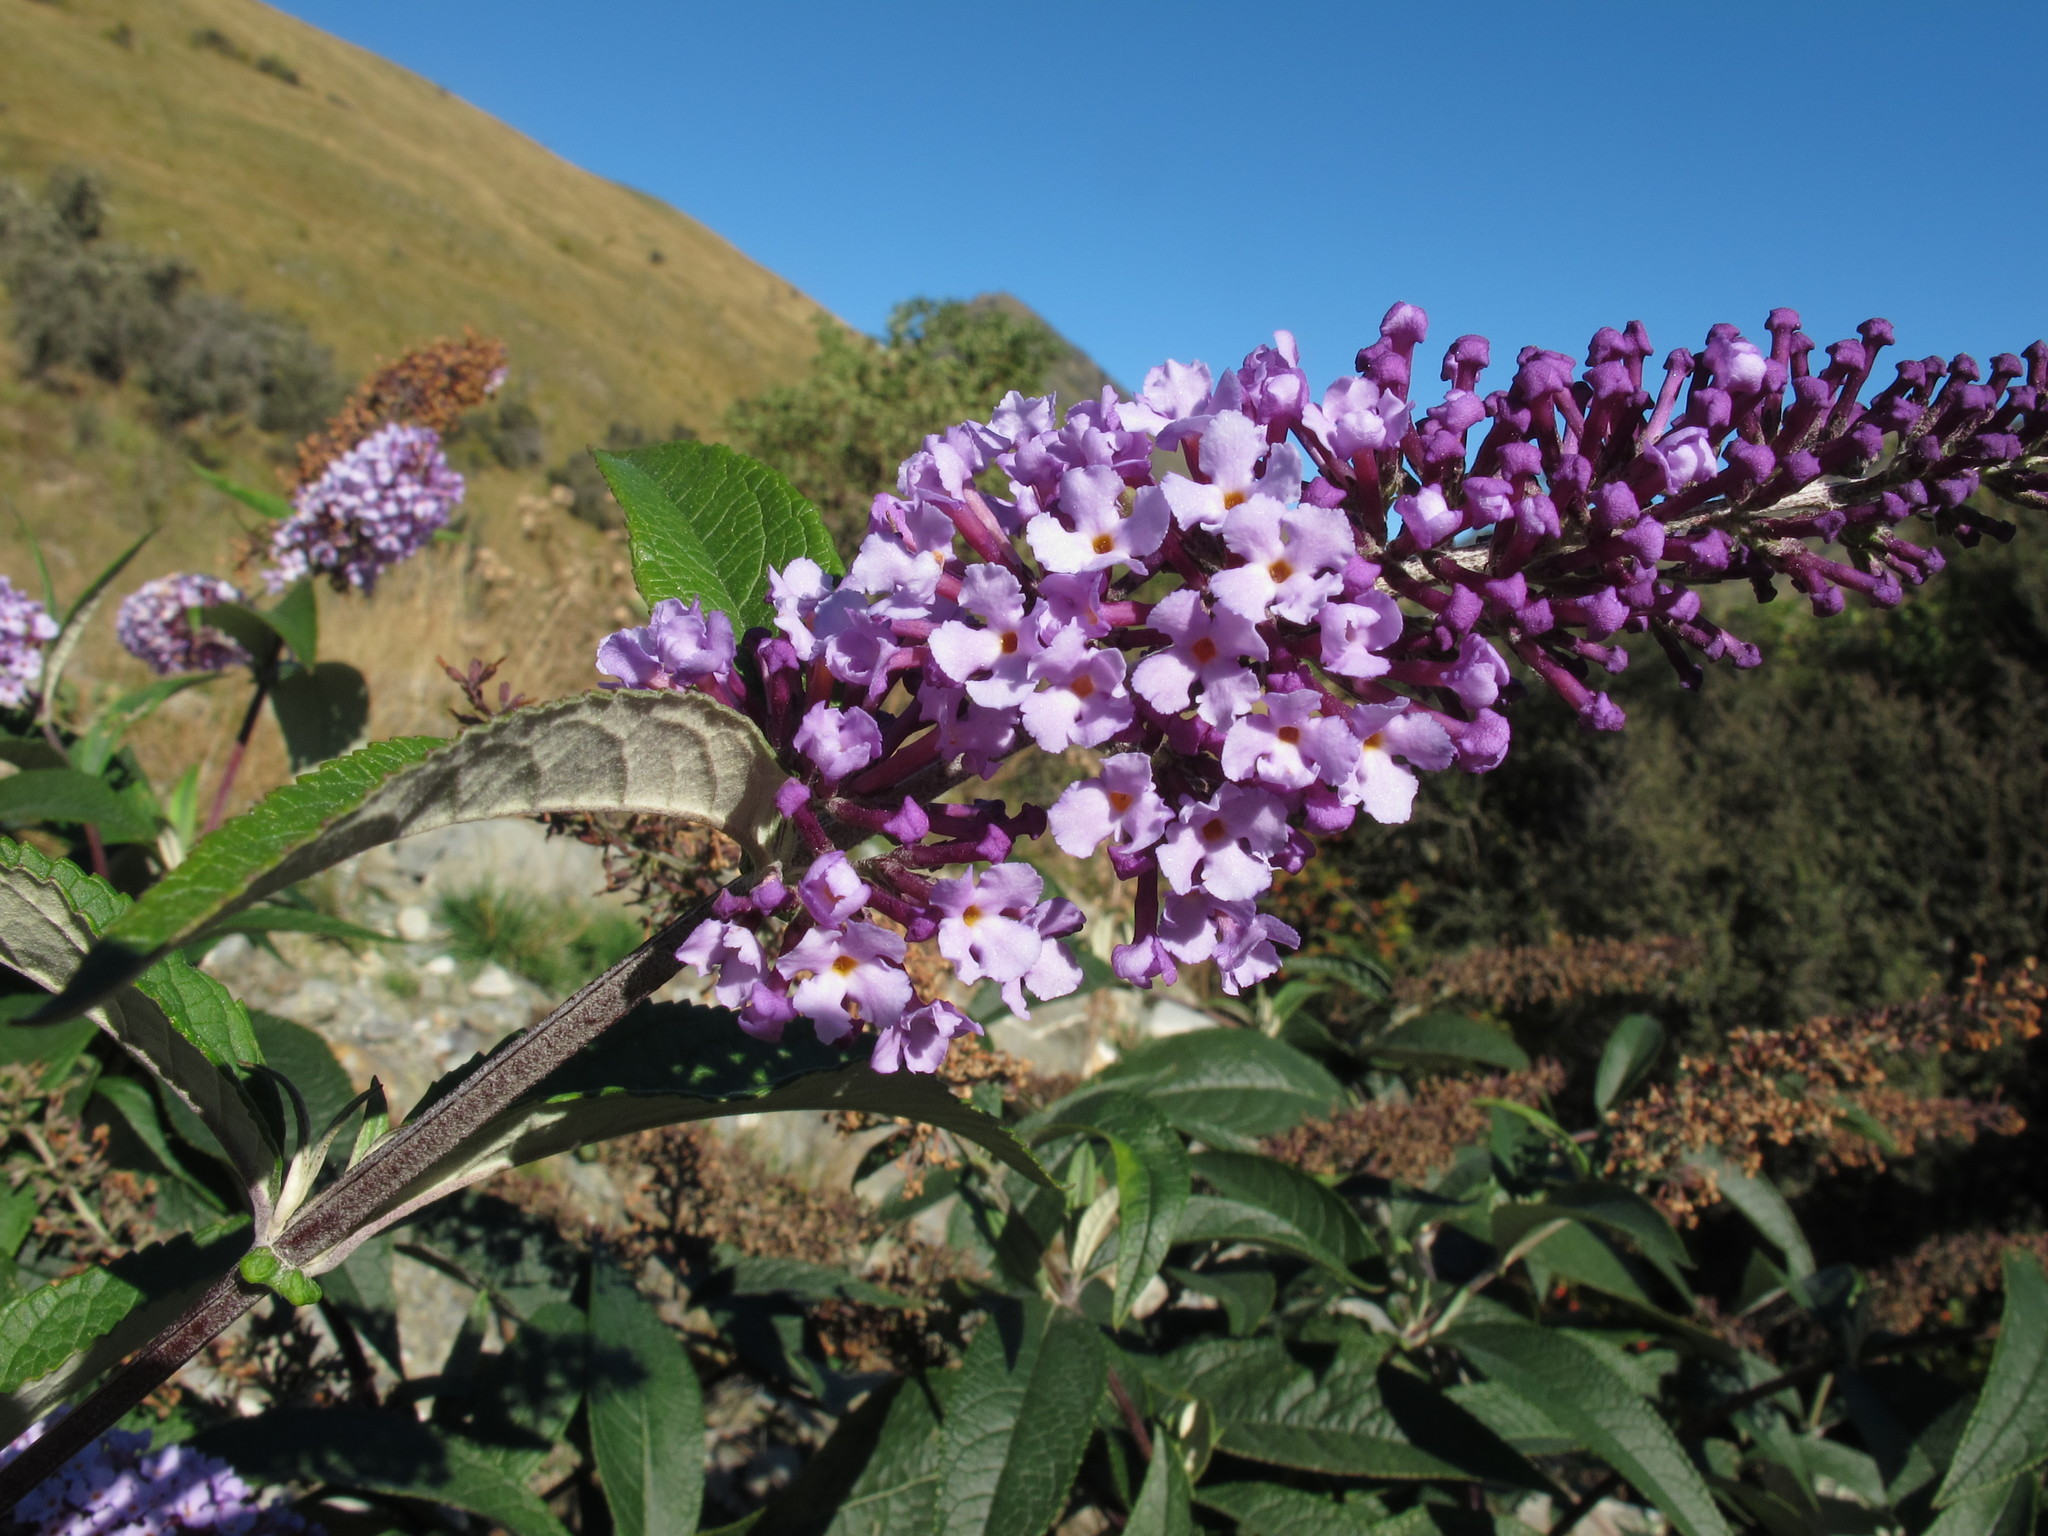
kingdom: Plantae
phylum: Tracheophyta
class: Magnoliopsida
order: Lamiales
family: Scrophulariaceae
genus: Buddleja
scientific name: Buddleja davidii
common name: Butterfly-bush
